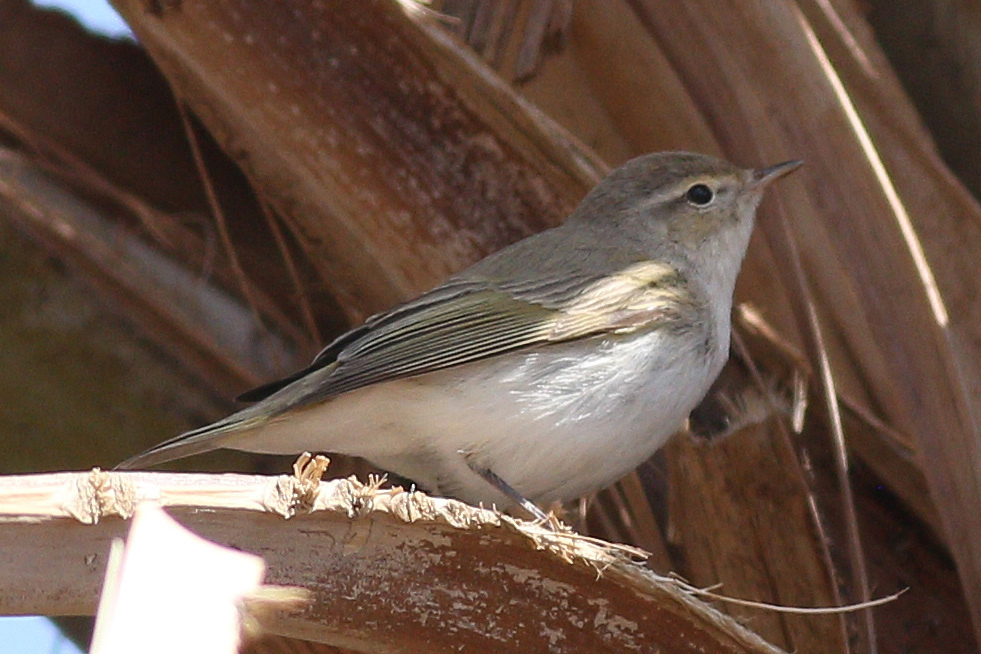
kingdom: Animalia
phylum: Chordata
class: Aves
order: Passeriformes
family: Phylloscopidae
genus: Phylloscopus
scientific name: Phylloscopus orientalis
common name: Eastern bonelli's warbler
